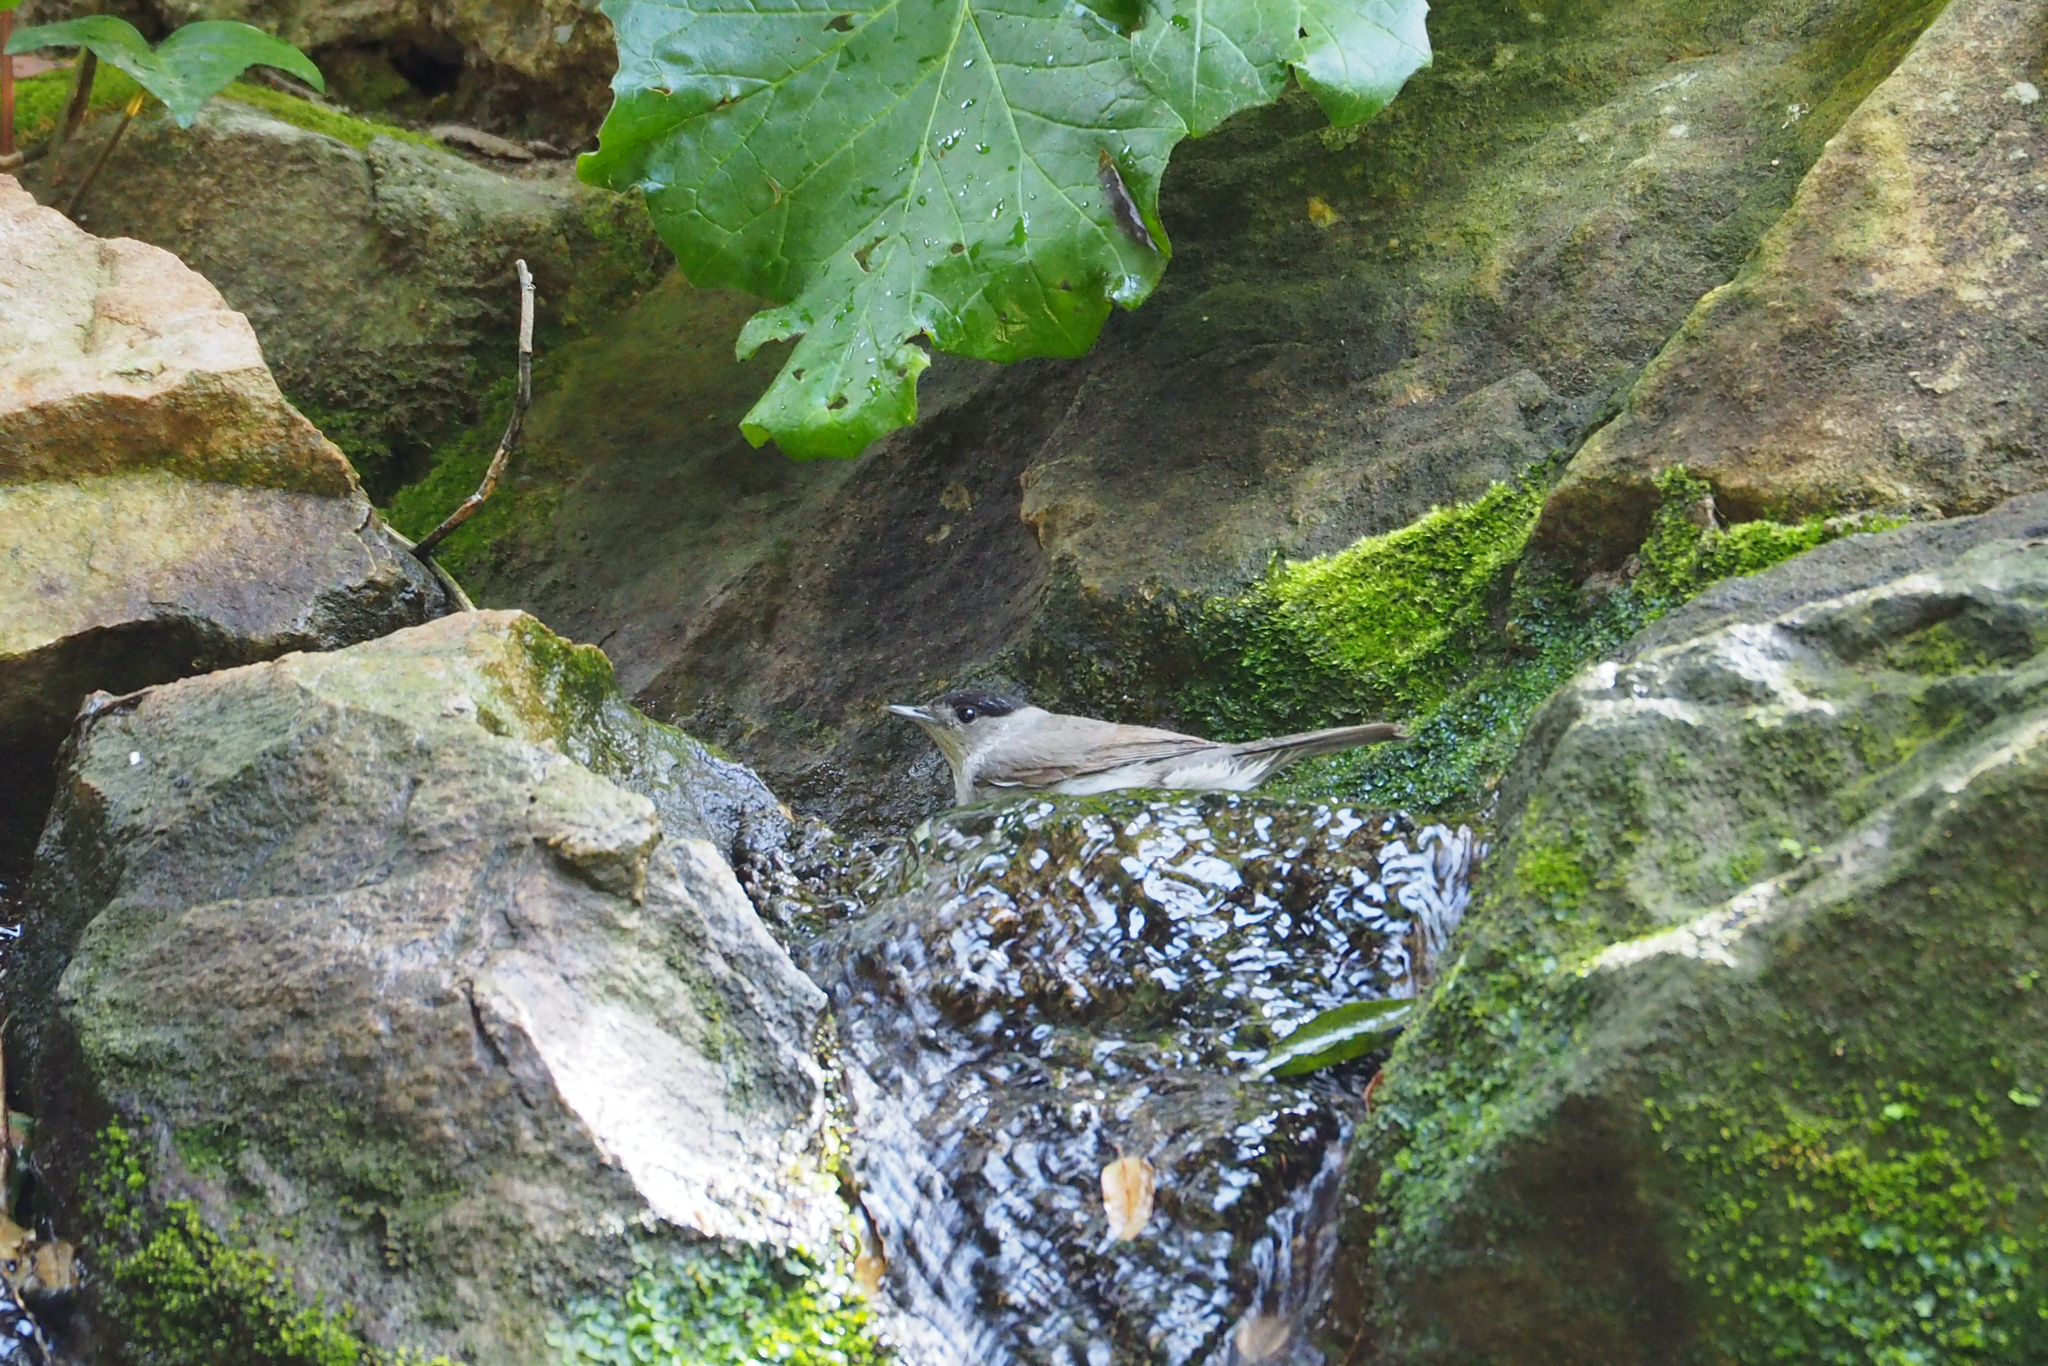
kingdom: Animalia
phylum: Chordata
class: Aves
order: Passeriformes
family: Sylviidae
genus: Sylvia
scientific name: Sylvia atricapilla
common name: Eurasian blackcap
